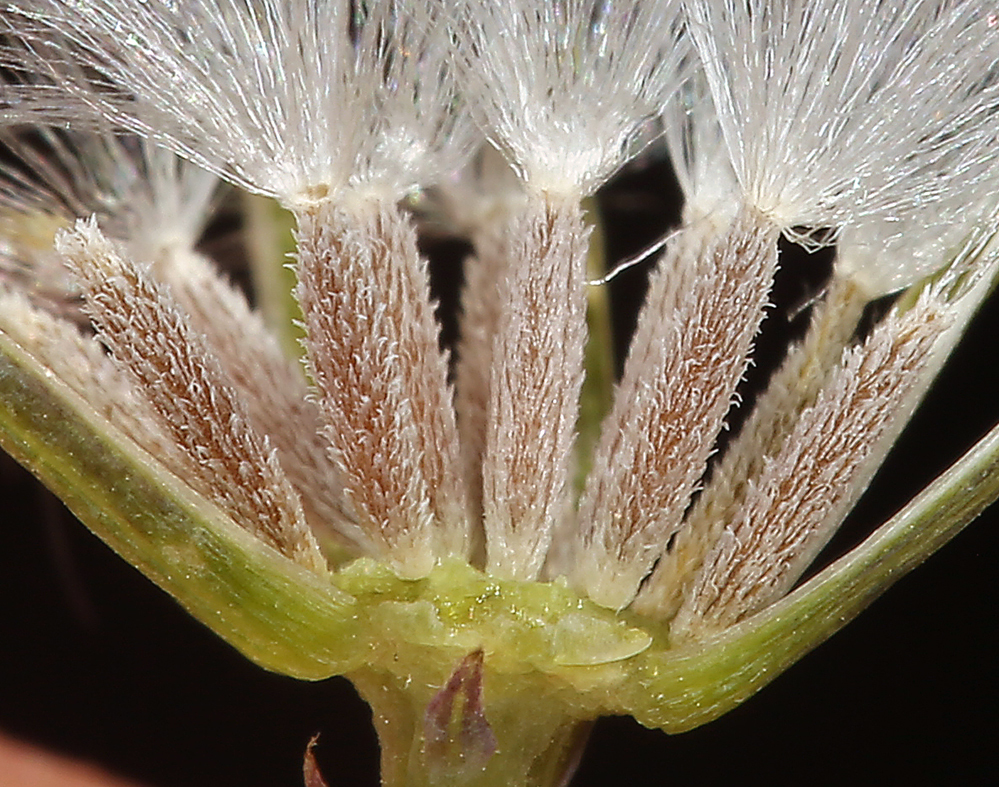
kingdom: Plantae
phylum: Tracheophyta
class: Magnoliopsida
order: Asterales
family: Asteraceae
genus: Senecio
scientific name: Senecio mohavensis
